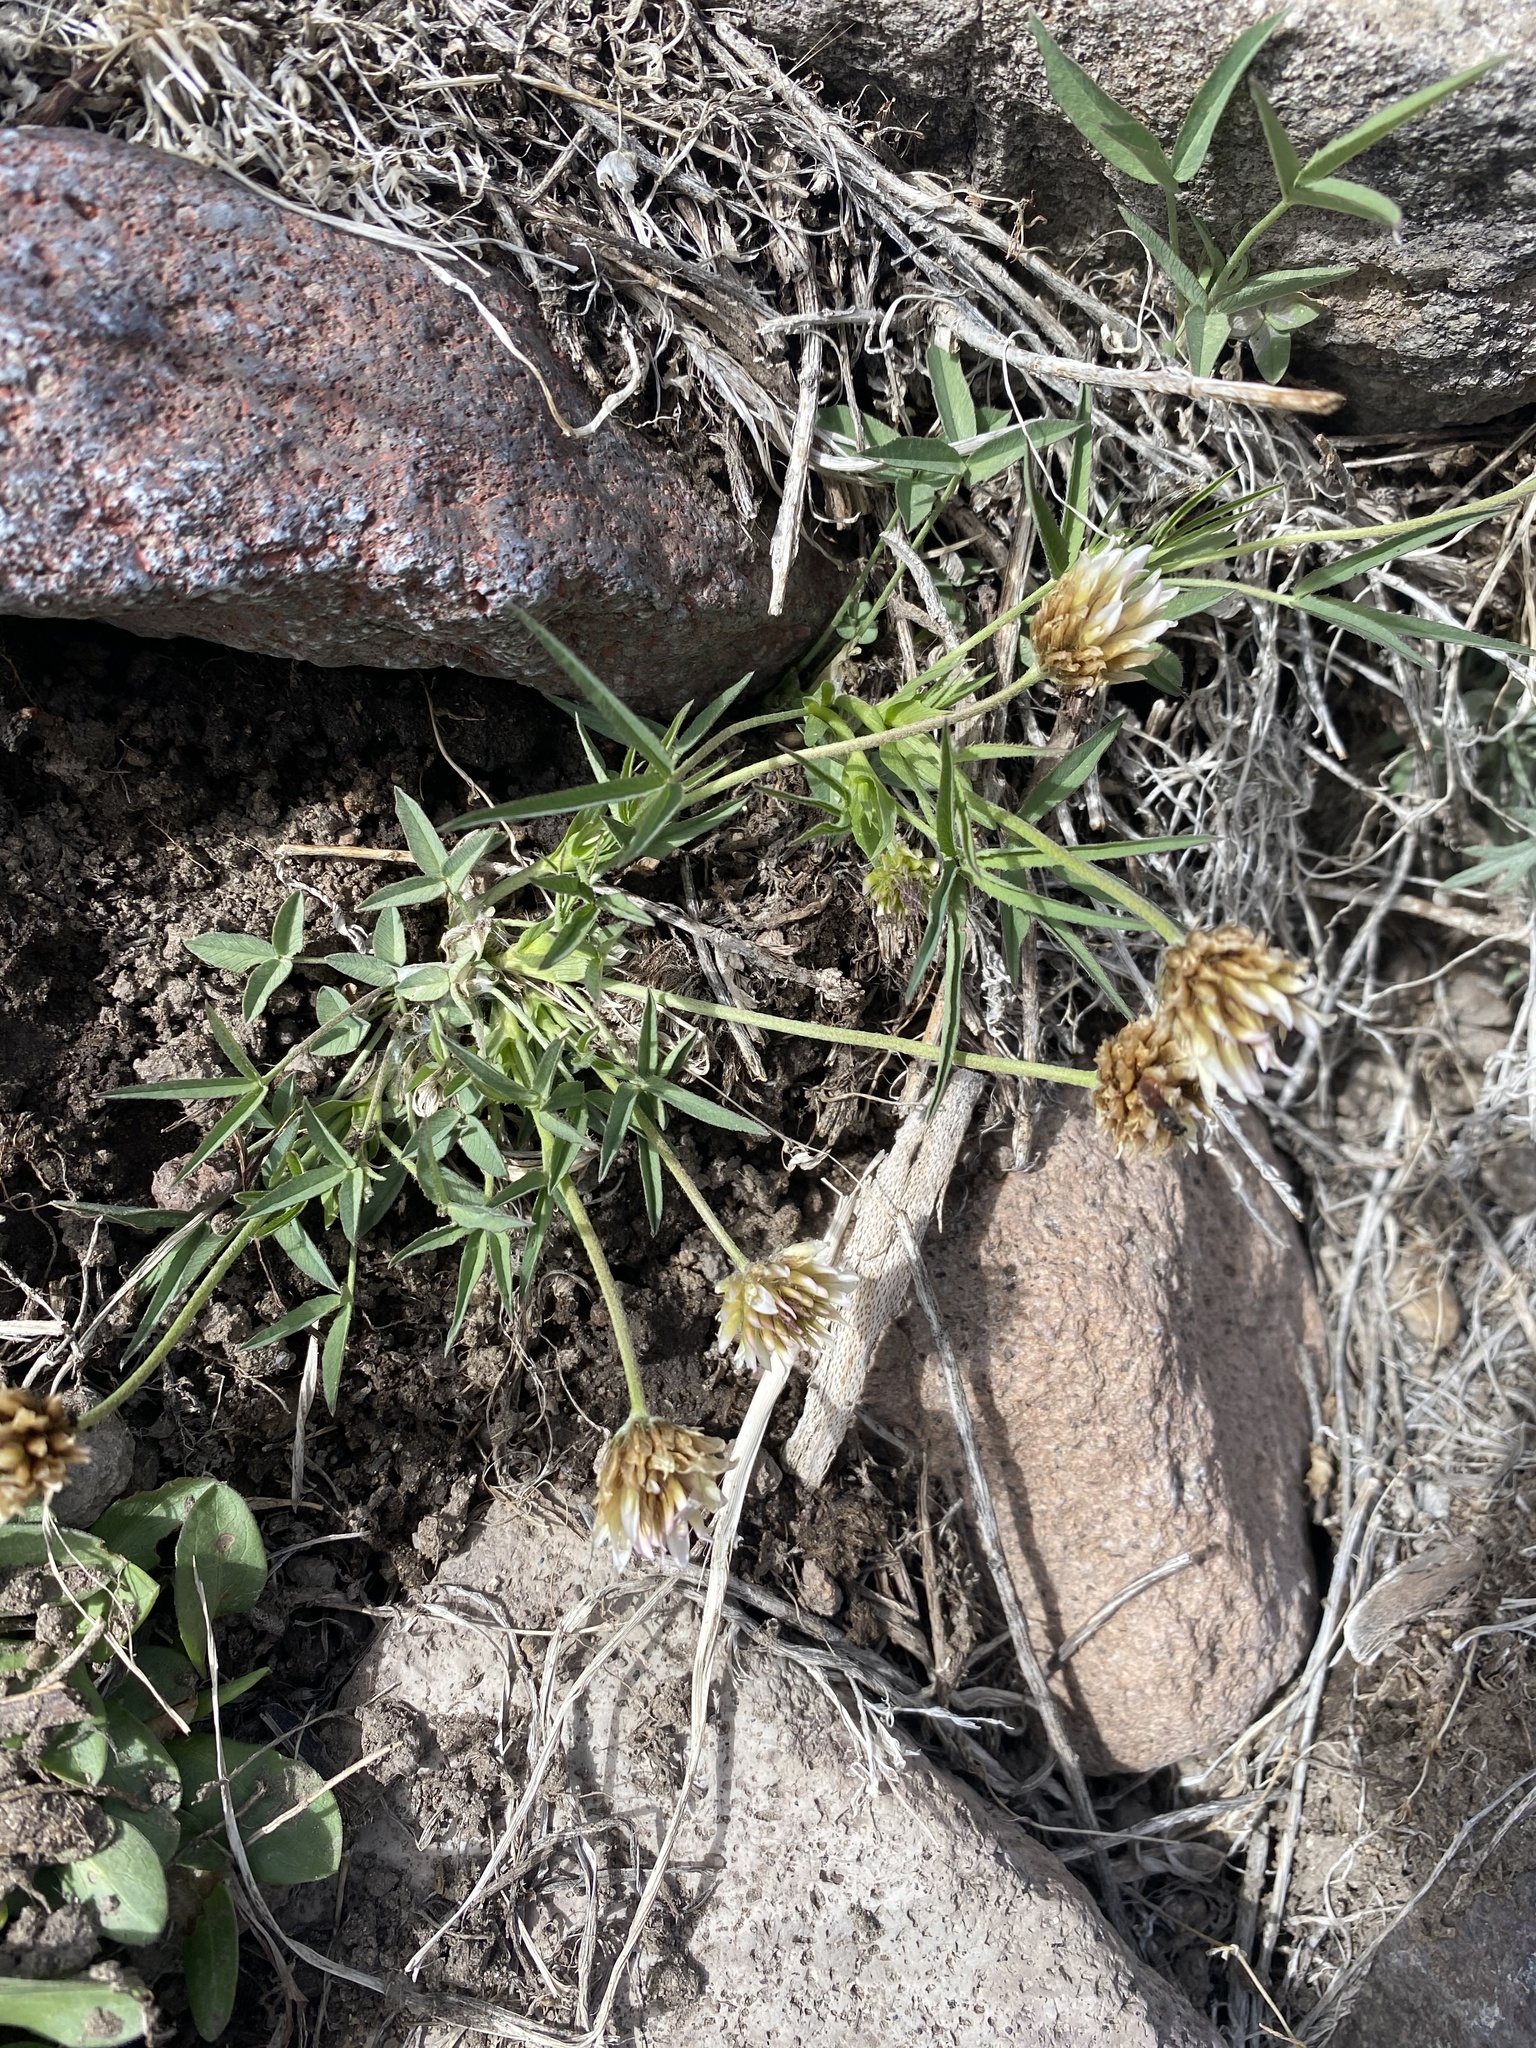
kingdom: Plantae
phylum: Tracheophyta
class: Magnoliopsida
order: Fabales
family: Fabaceae
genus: Trifolium
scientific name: Trifolium longipes
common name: Long-stalk clover
